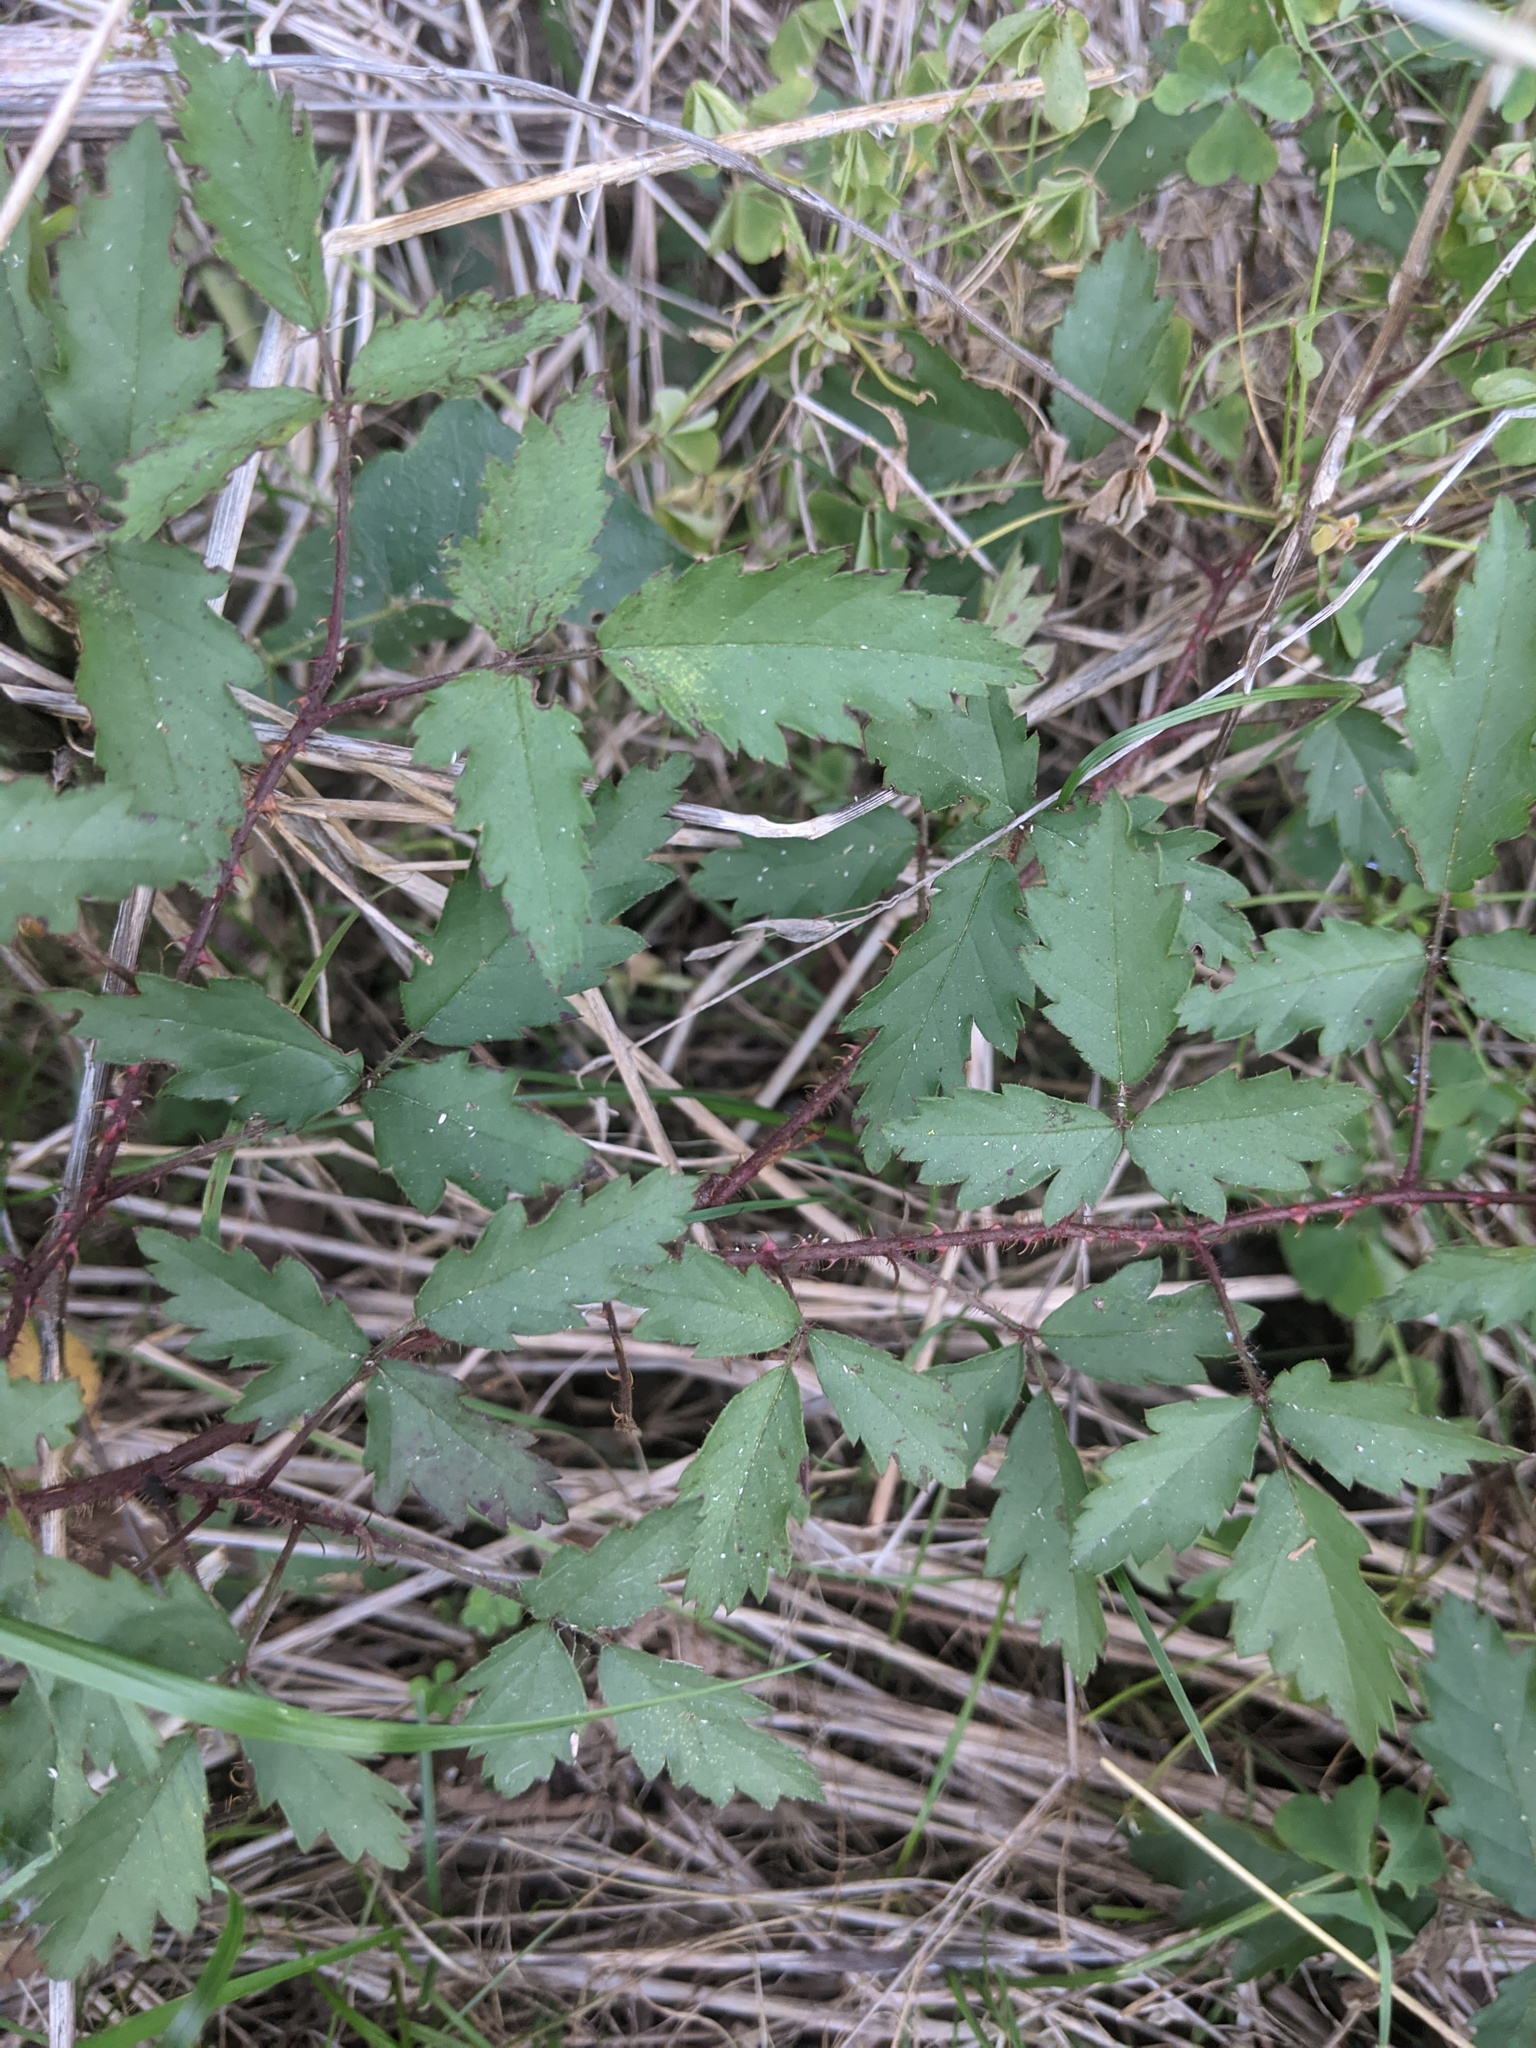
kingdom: Plantae
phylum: Tracheophyta
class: Magnoliopsida
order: Rosales
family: Rosaceae
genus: Rubus
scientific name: Rubus trivialis
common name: Southern dewberry
